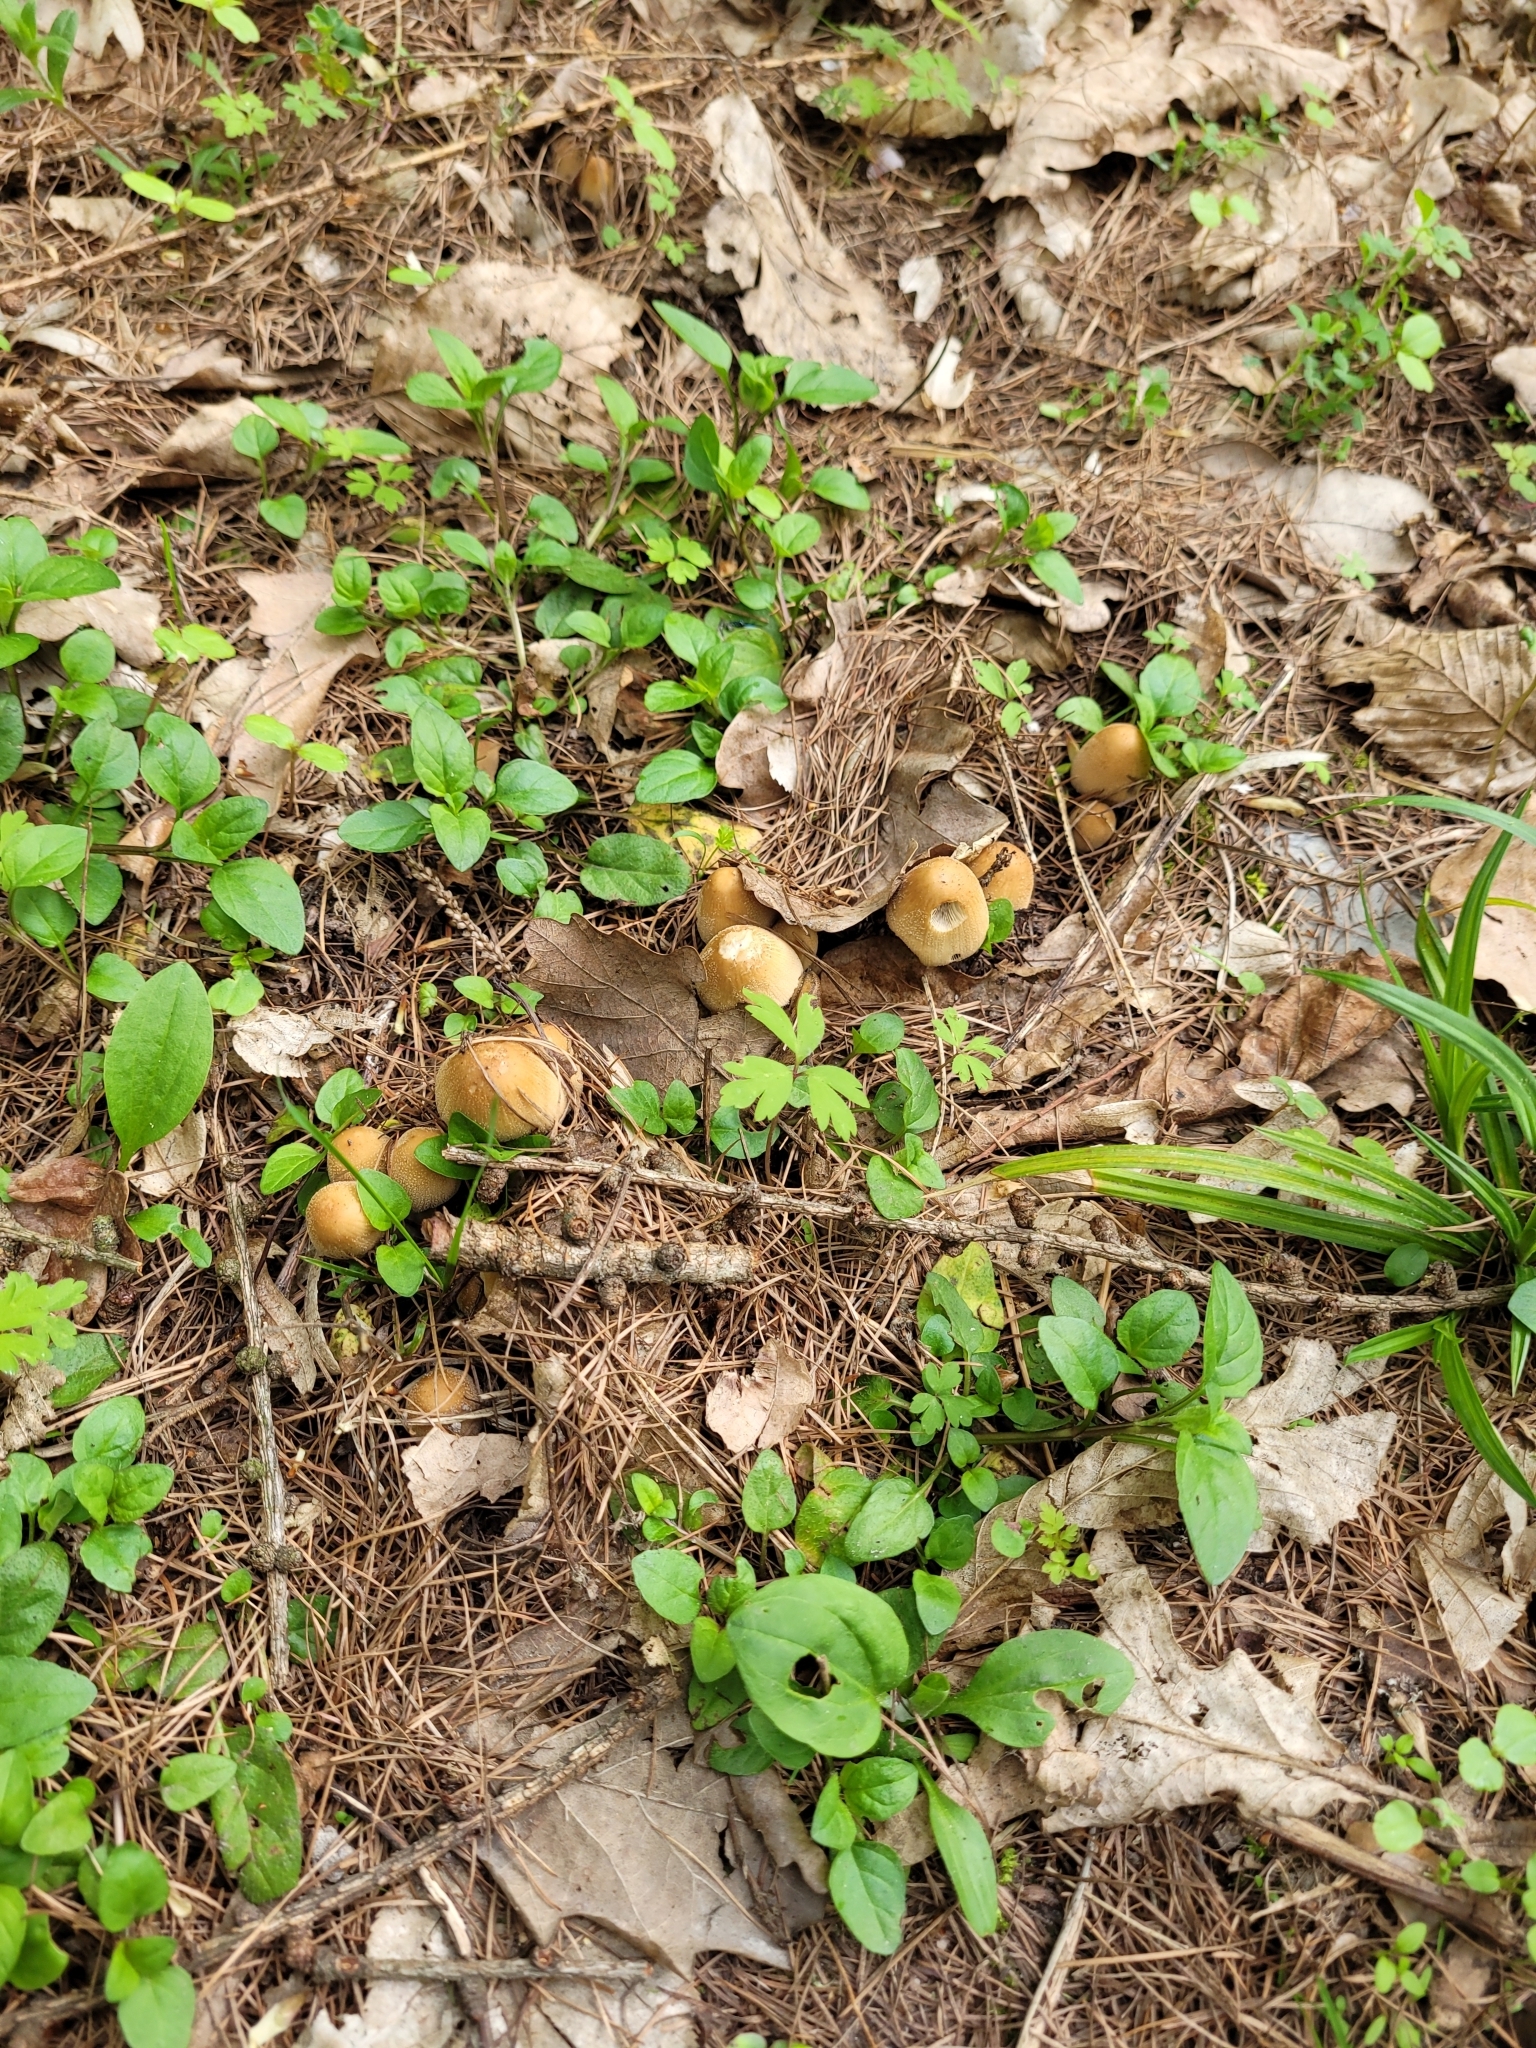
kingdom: Fungi
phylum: Basidiomycota
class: Agaricomycetes
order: Agaricales
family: Psathyrellaceae
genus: Coprinellus
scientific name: Coprinellus micaceus
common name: Glistening ink-cap
